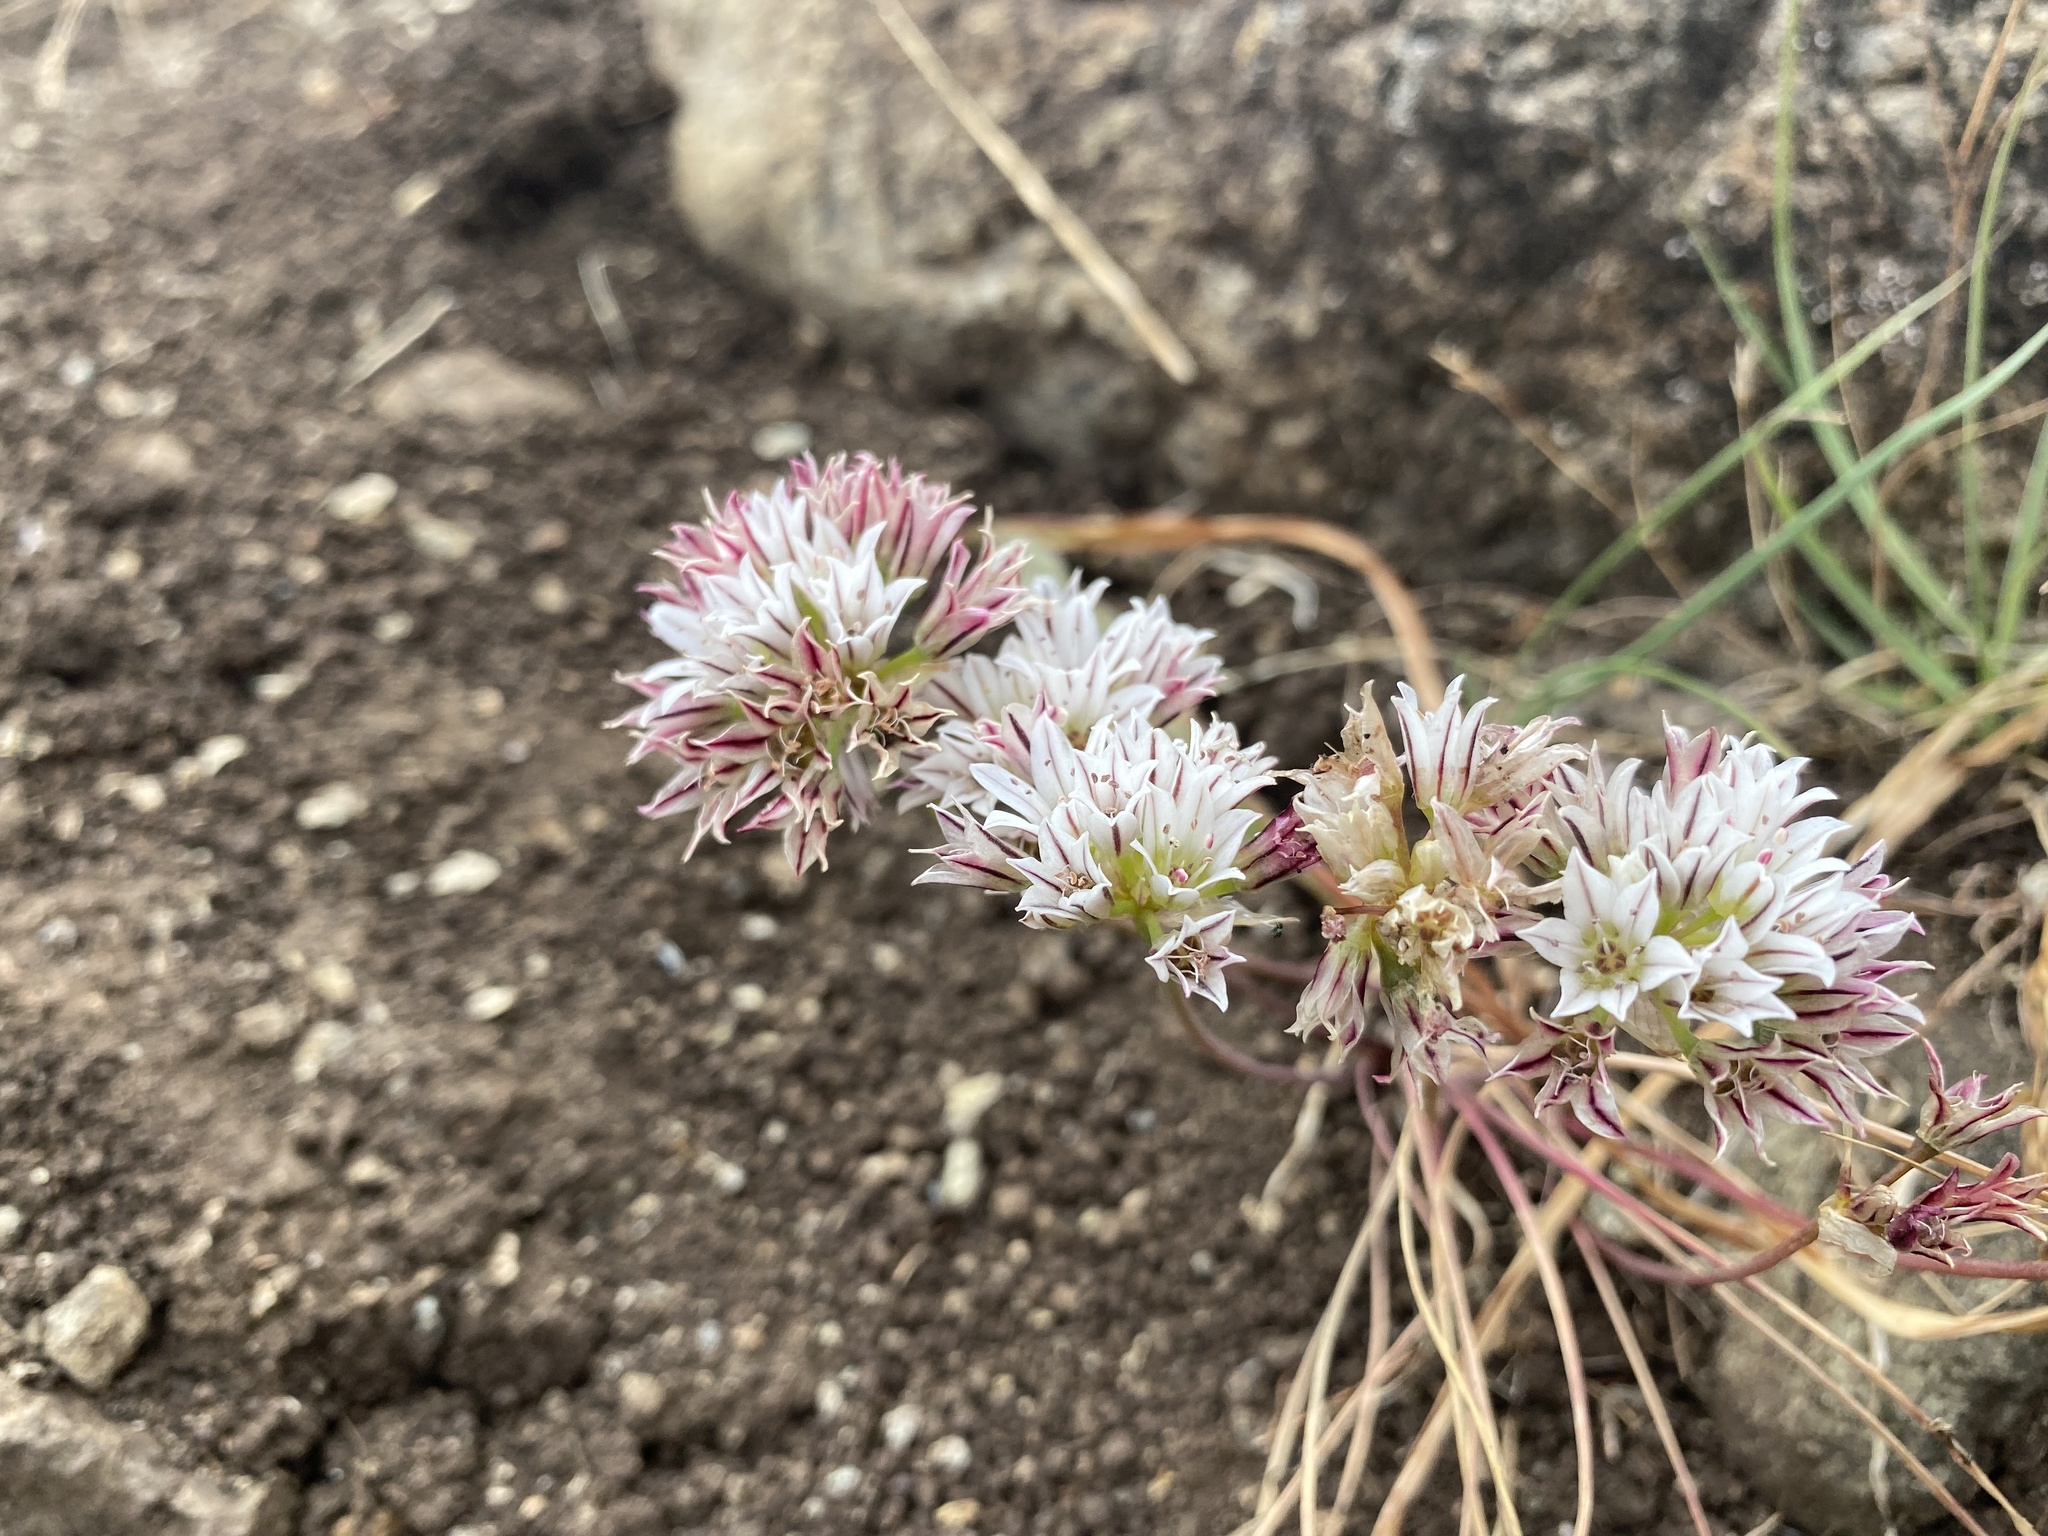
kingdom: Plantae
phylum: Tracheophyta
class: Liliopsida
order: Asparagales
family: Amaryllidaceae
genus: Allium
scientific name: Allium lacunosum
